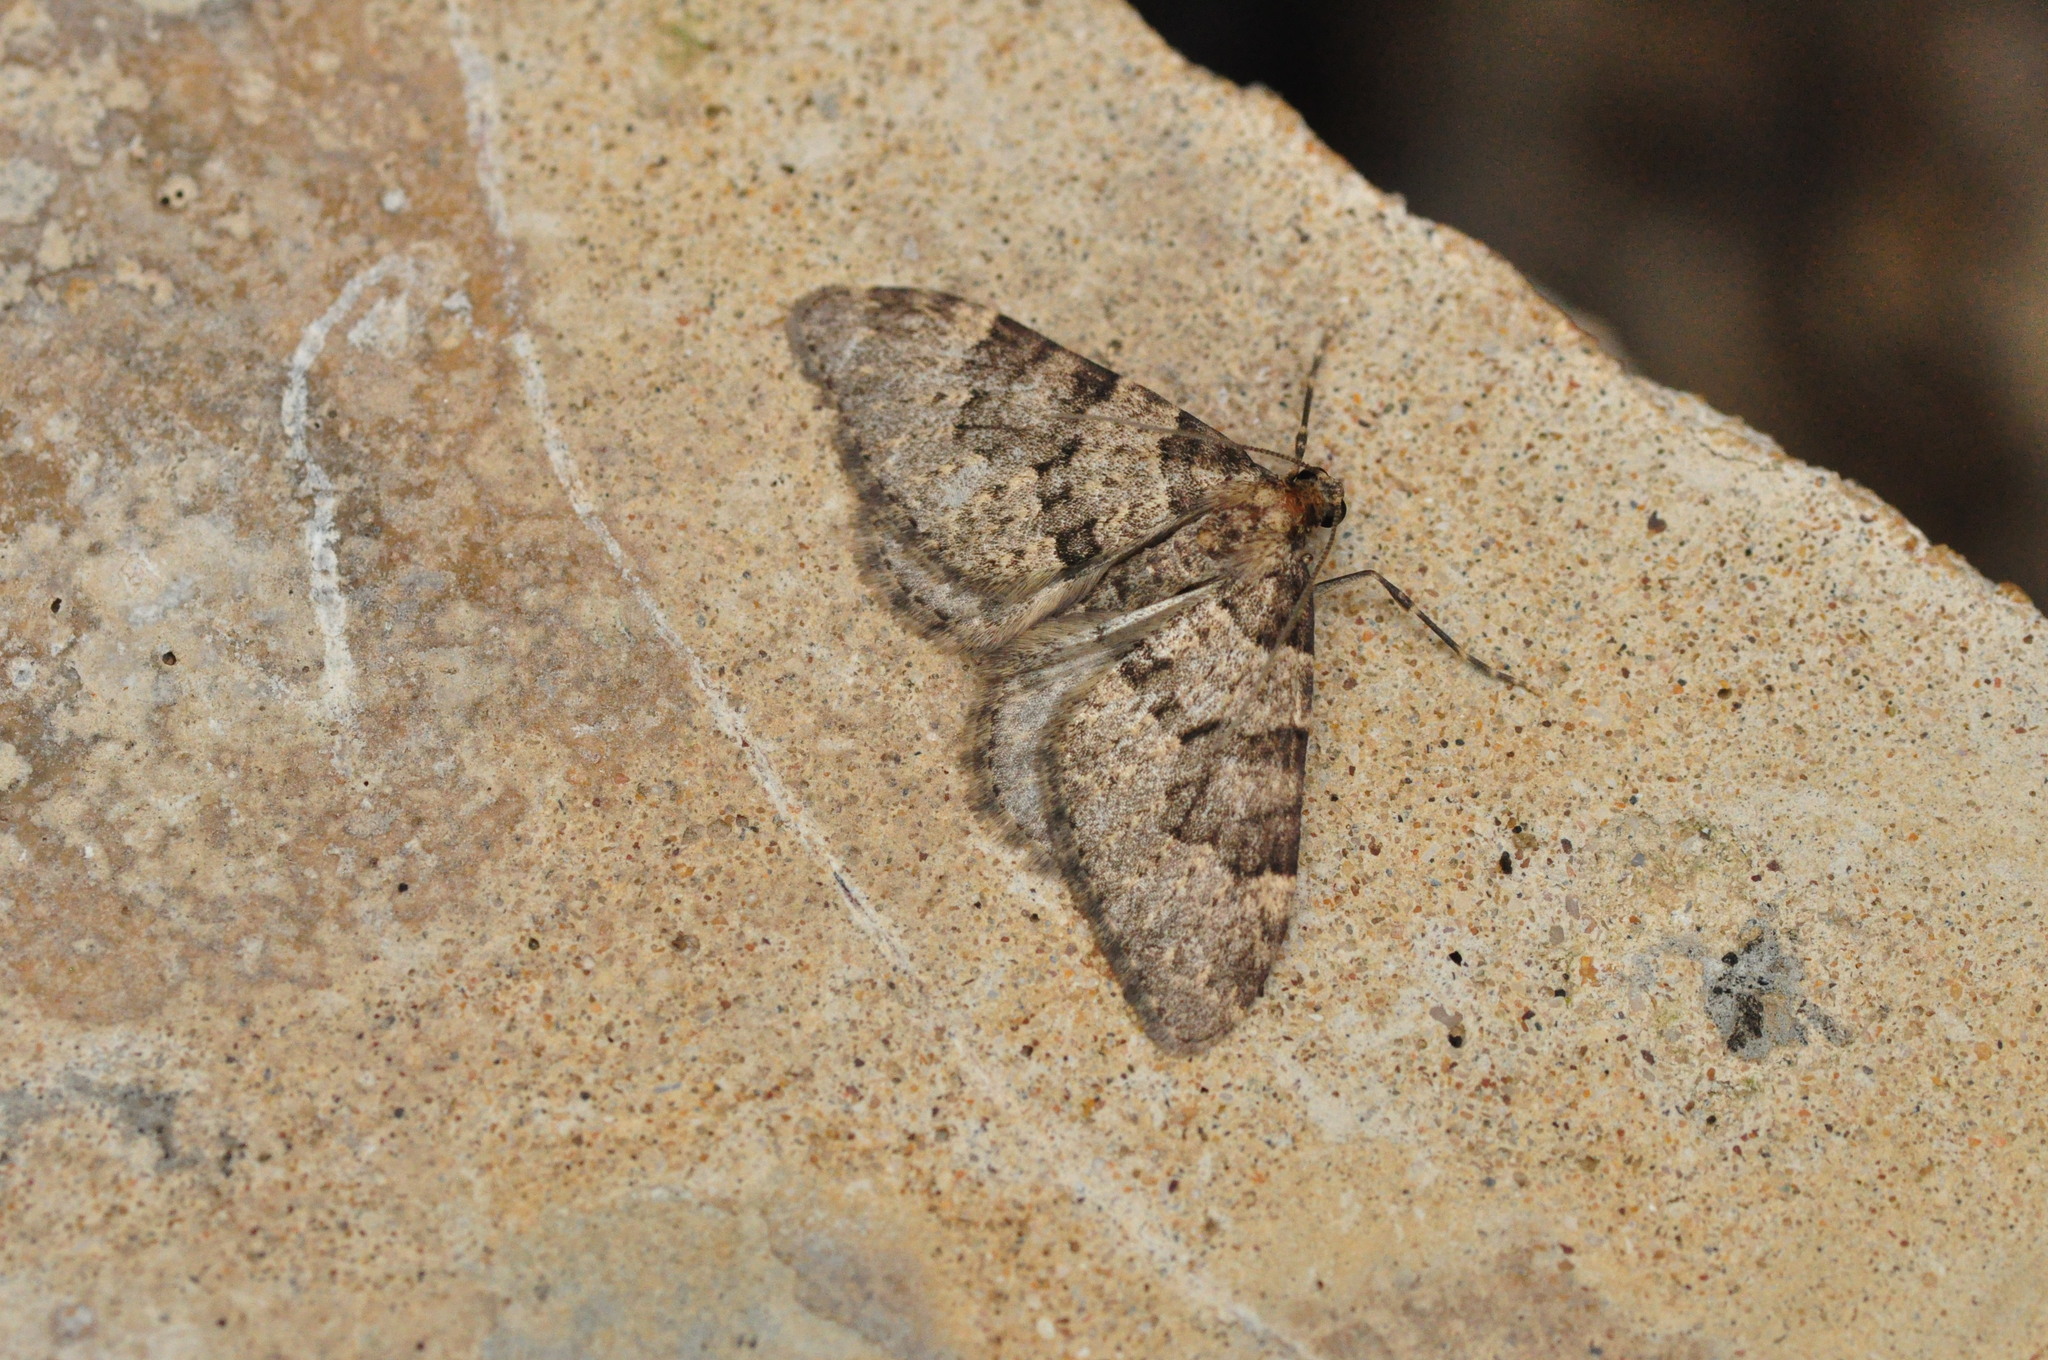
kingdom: Animalia
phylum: Arthropoda
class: Insecta
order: Lepidoptera
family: Geometridae
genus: Nebula
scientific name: Nebula ibericata
